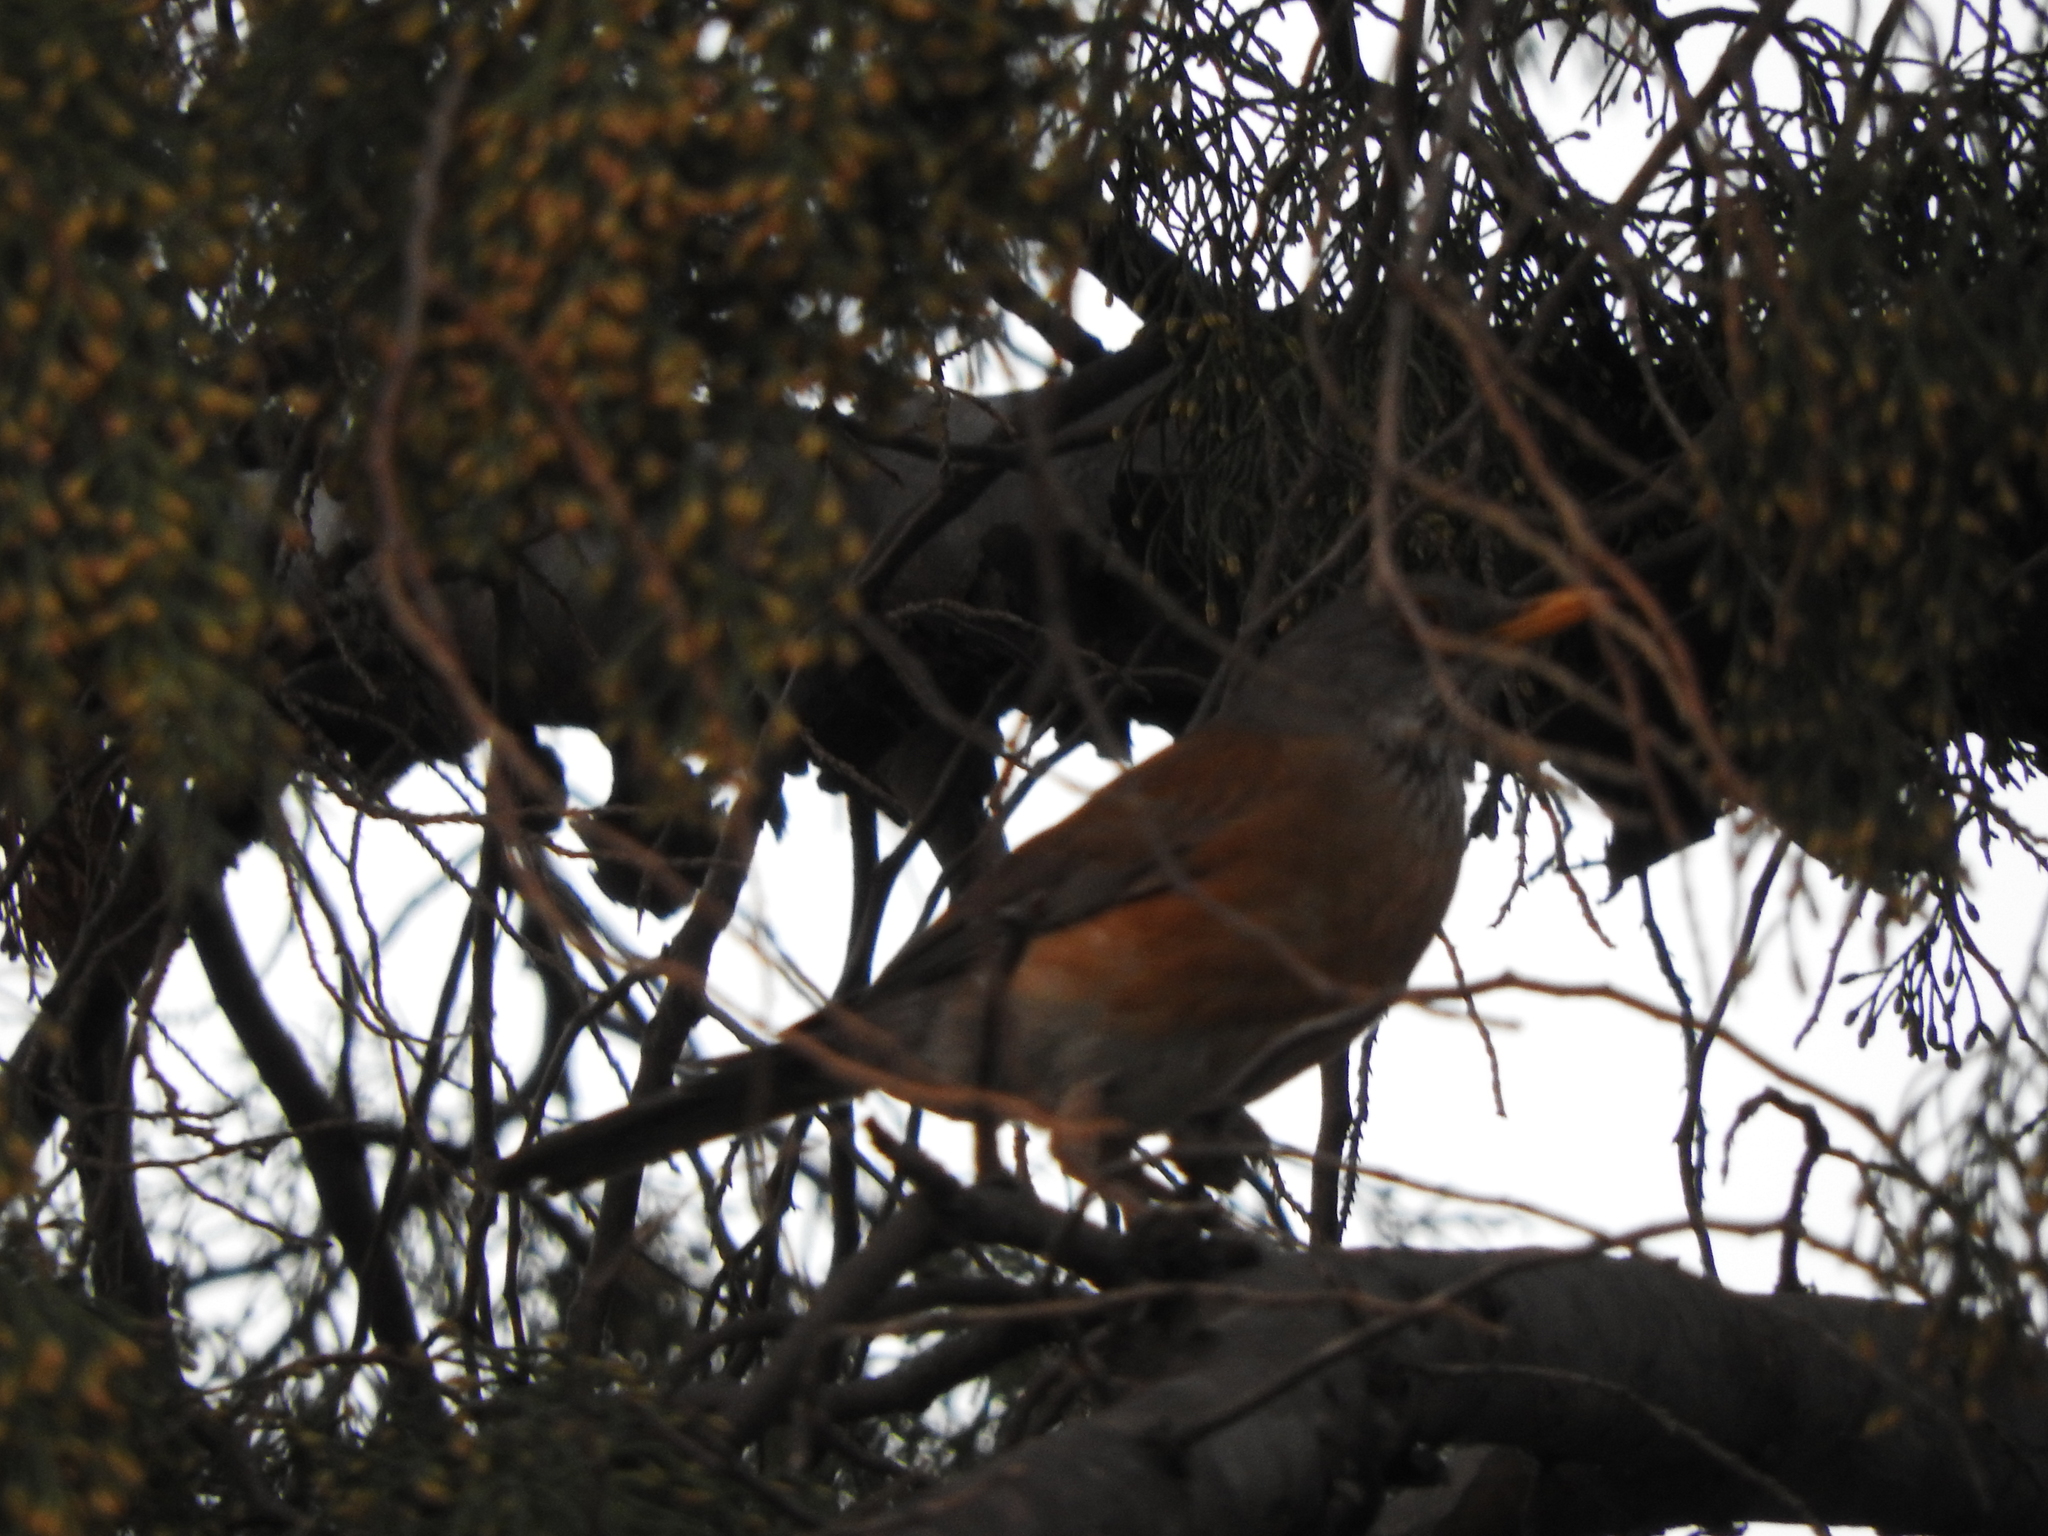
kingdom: Animalia
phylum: Chordata
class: Aves
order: Passeriformes
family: Turdidae
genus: Turdus
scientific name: Turdus rufopalliatus
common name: Rufous-backed robin
